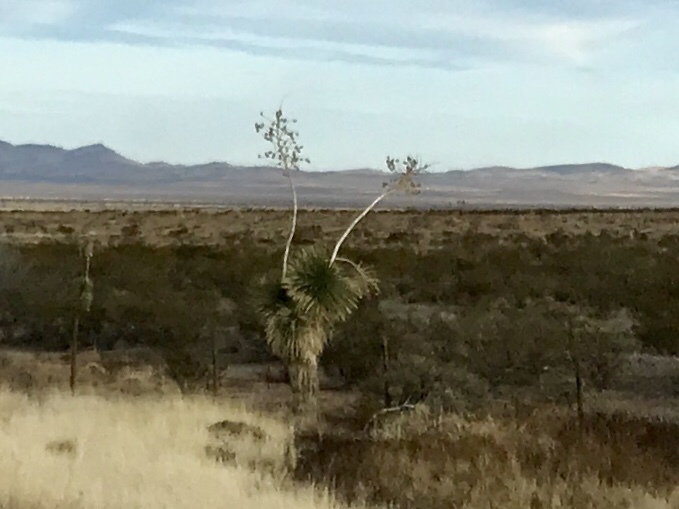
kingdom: Plantae
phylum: Tracheophyta
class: Liliopsida
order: Asparagales
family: Asparagaceae
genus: Yucca
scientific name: Yucca elata
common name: Palmella
